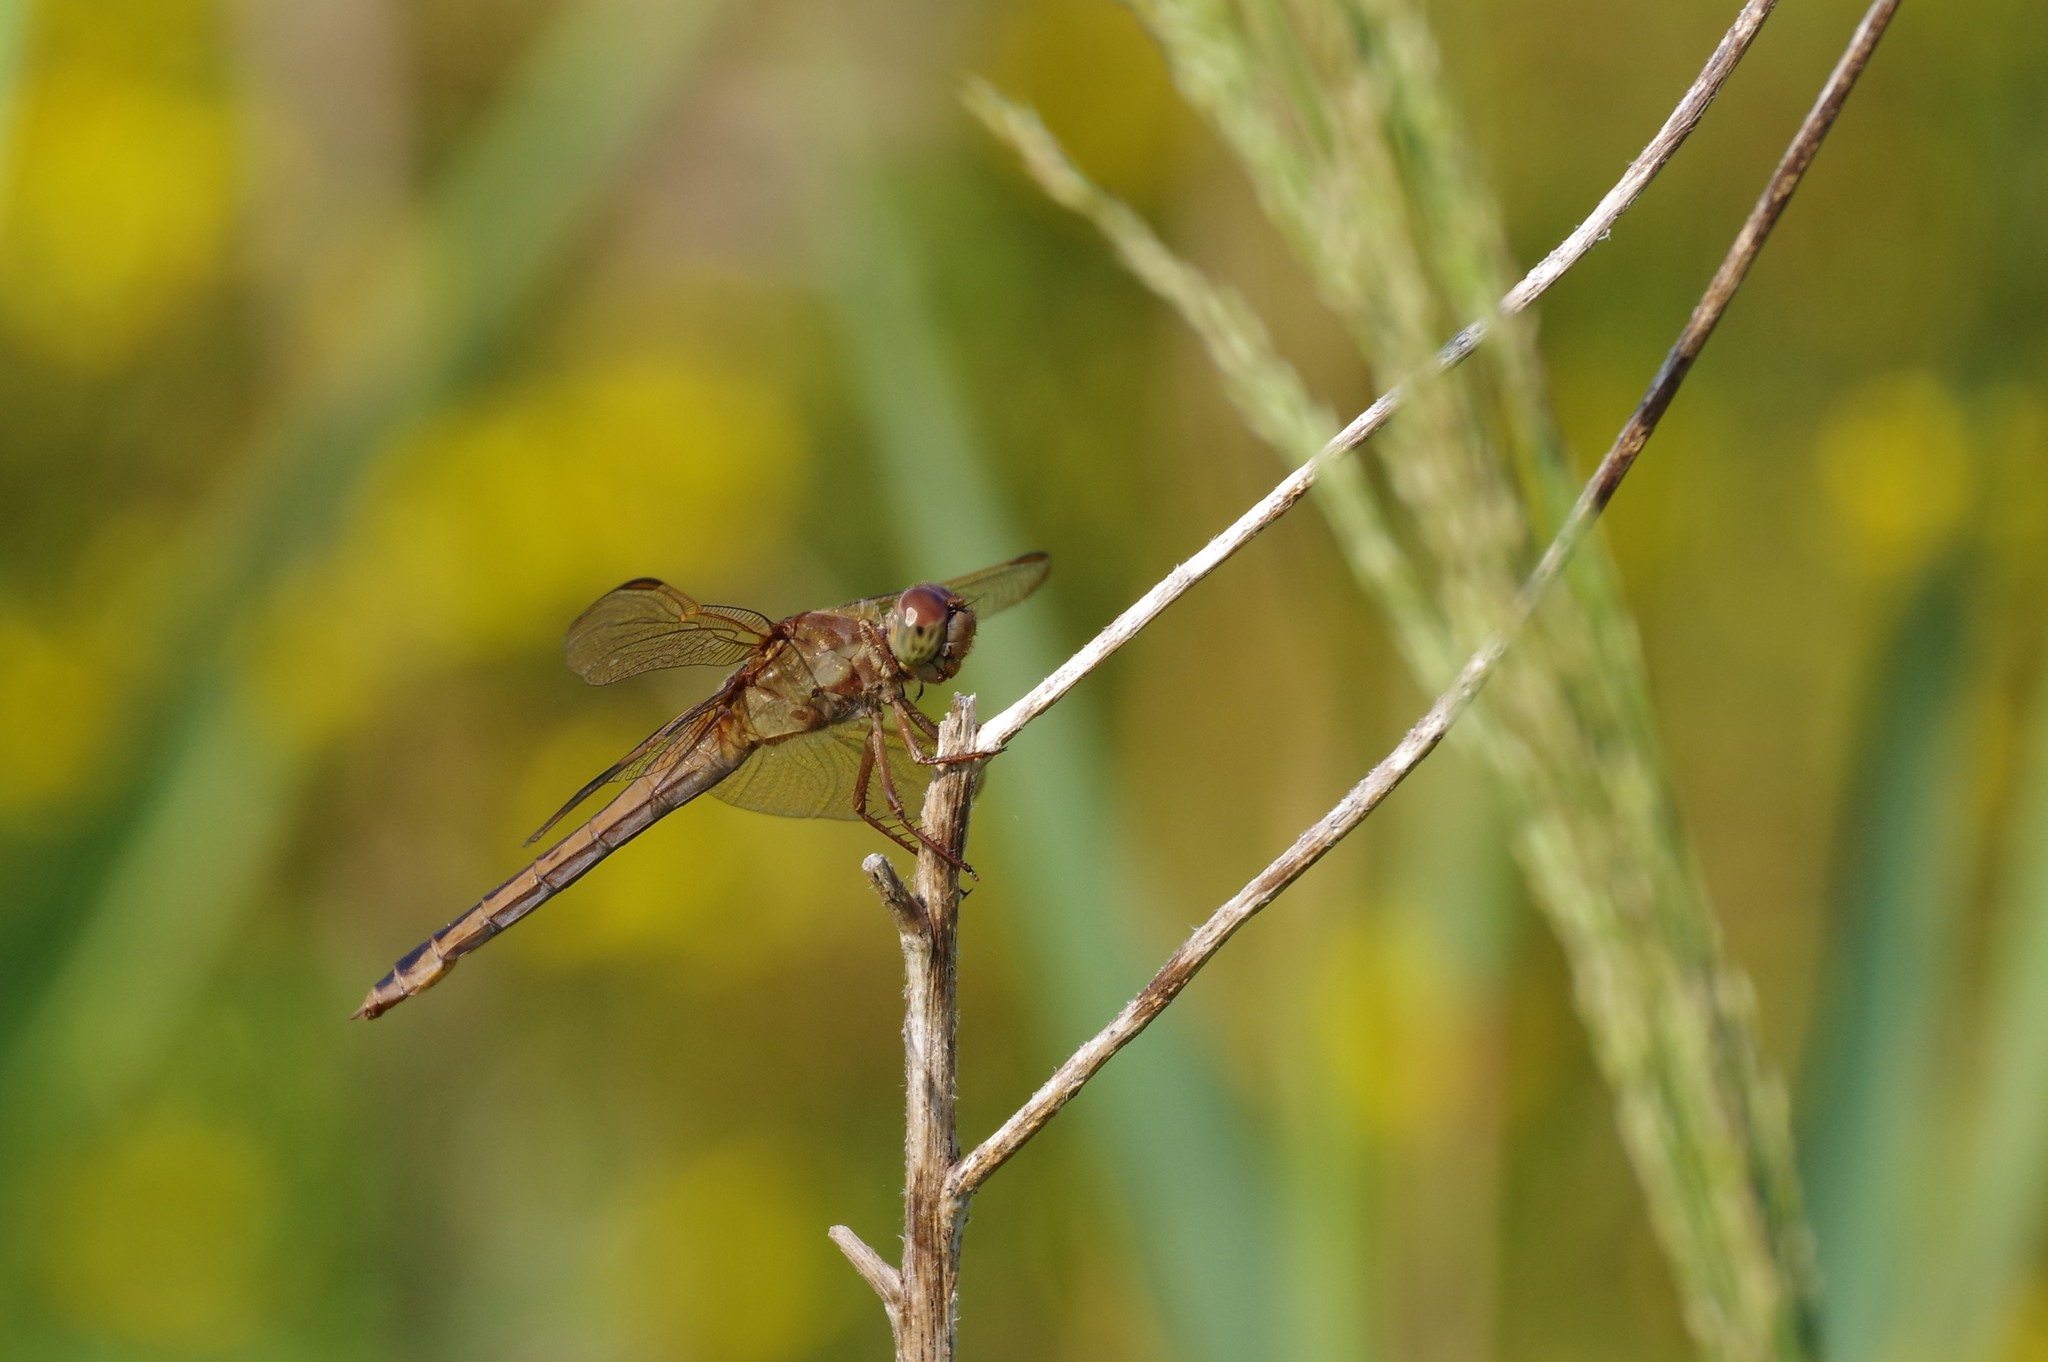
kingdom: Animalia
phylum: Arthropoda
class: Insecta
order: Odonata
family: Libellulidae
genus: Libellula
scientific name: Libellula needhami
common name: Needham's skimmer
